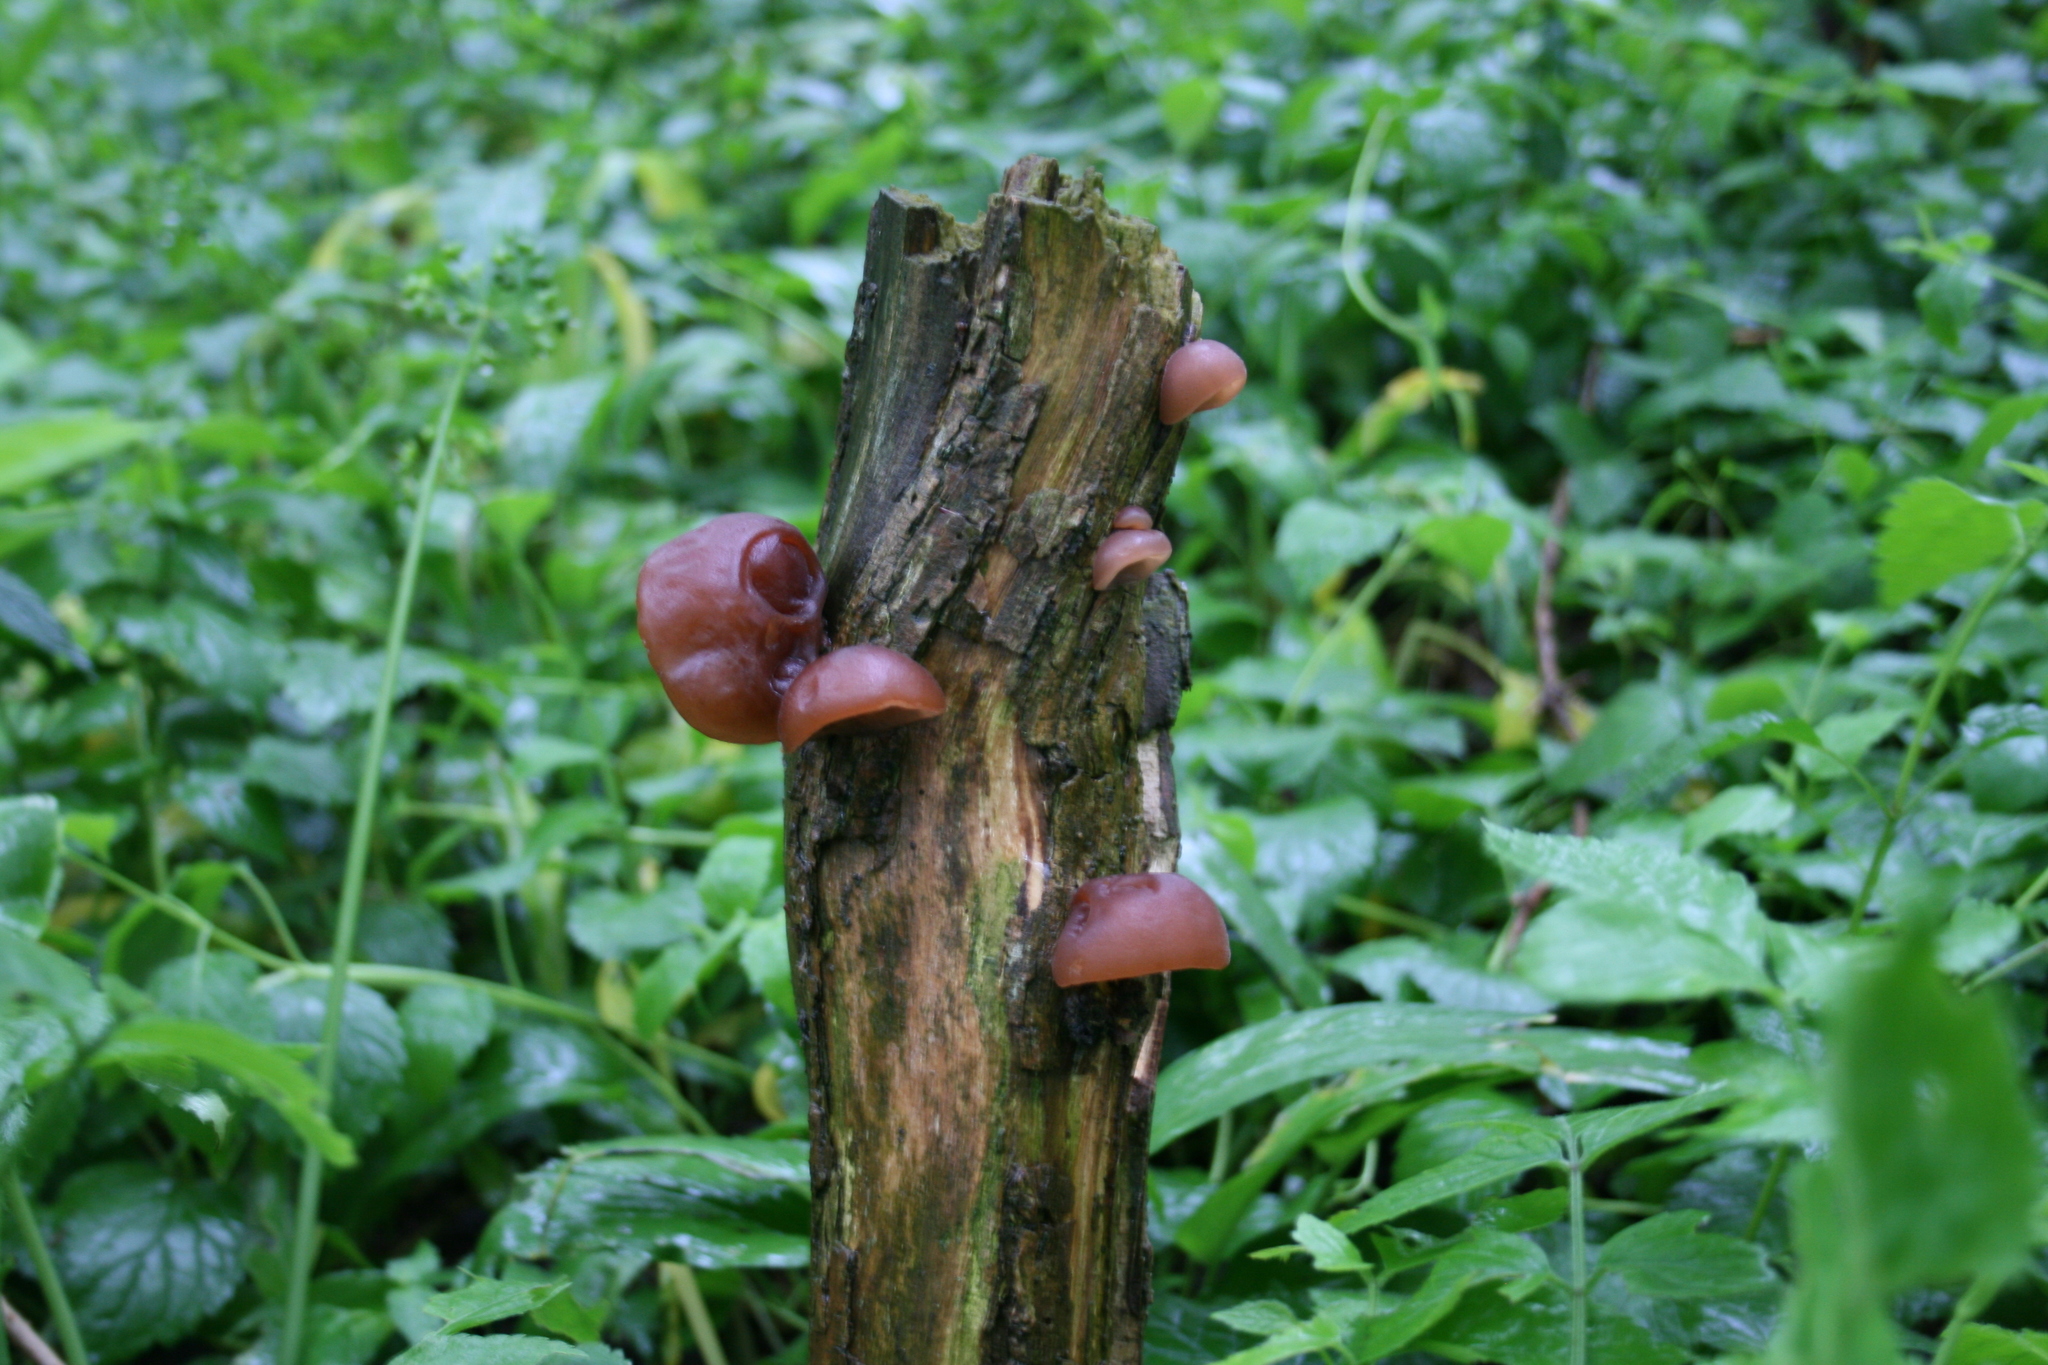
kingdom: Fungi
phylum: Basidiomycota
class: Agaricomycetes
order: Auriculariales
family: Auriculariaceae
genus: Auricularia
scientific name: Auricularia auricula-judae
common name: Jelly ear
